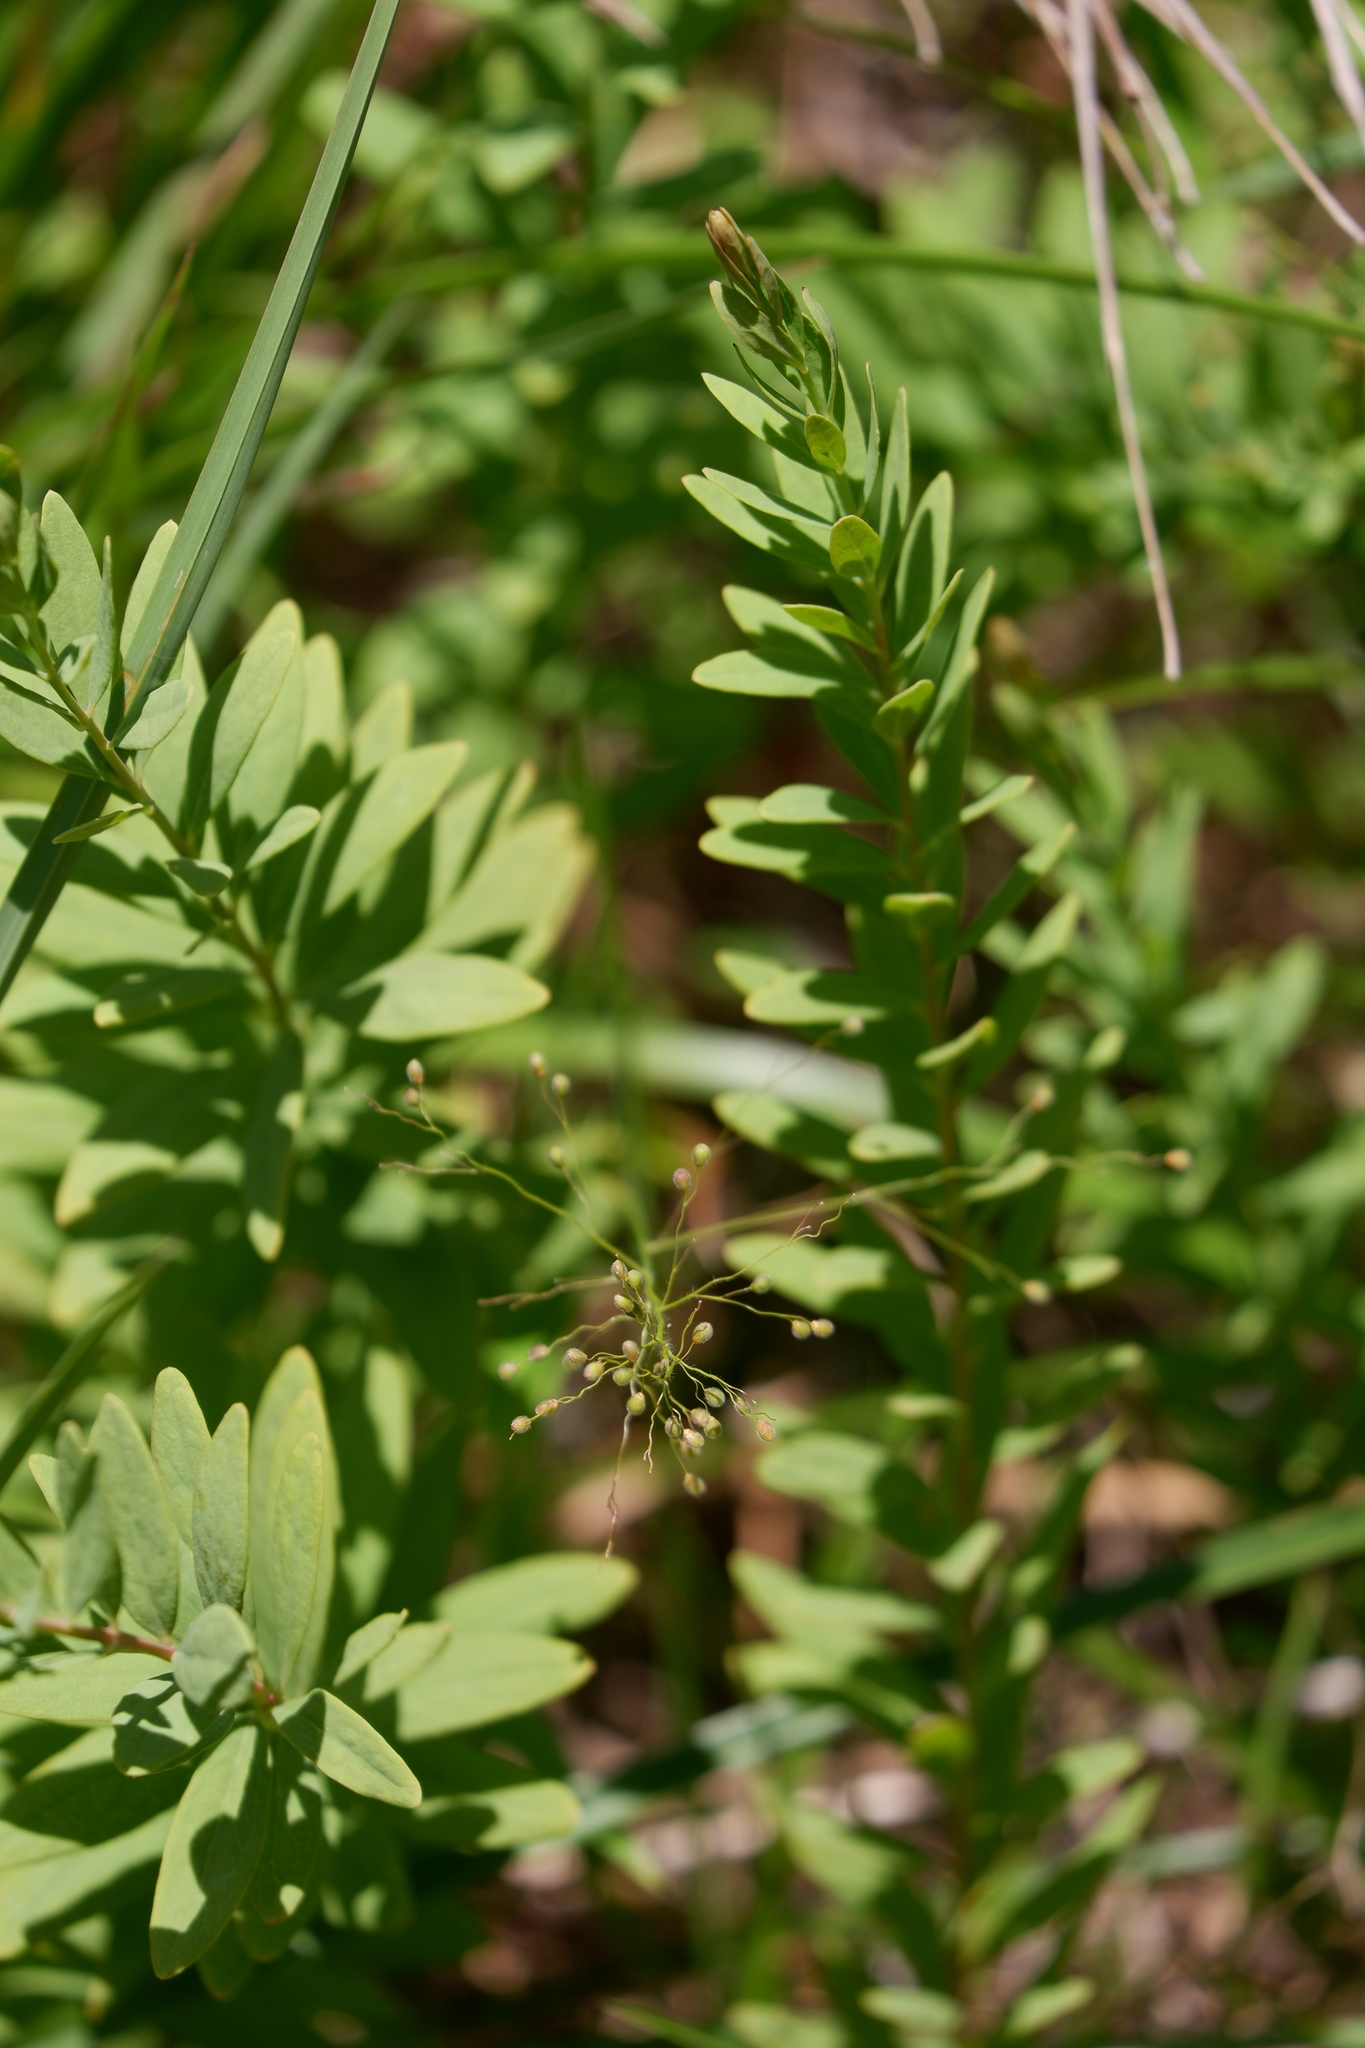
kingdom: Plantae
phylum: Tracheophyta
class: Magnoliopsida
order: Santalales
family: Comandraceae
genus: Comandra
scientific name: Comandra umbellata
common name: Bastard toadflax
